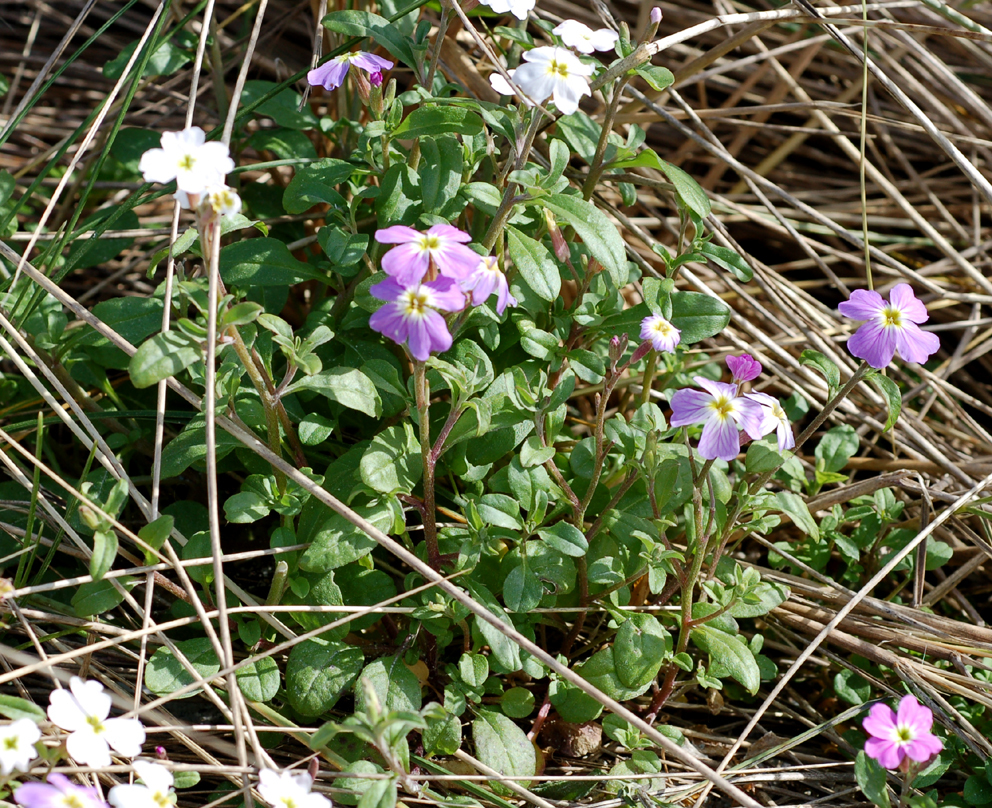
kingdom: Plantae
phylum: Tracheophyta
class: Magnoliopsida
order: Brassicales
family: Brassicaceae
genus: Malcolmia
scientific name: Malcolmia maritima
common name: Virginia stock
